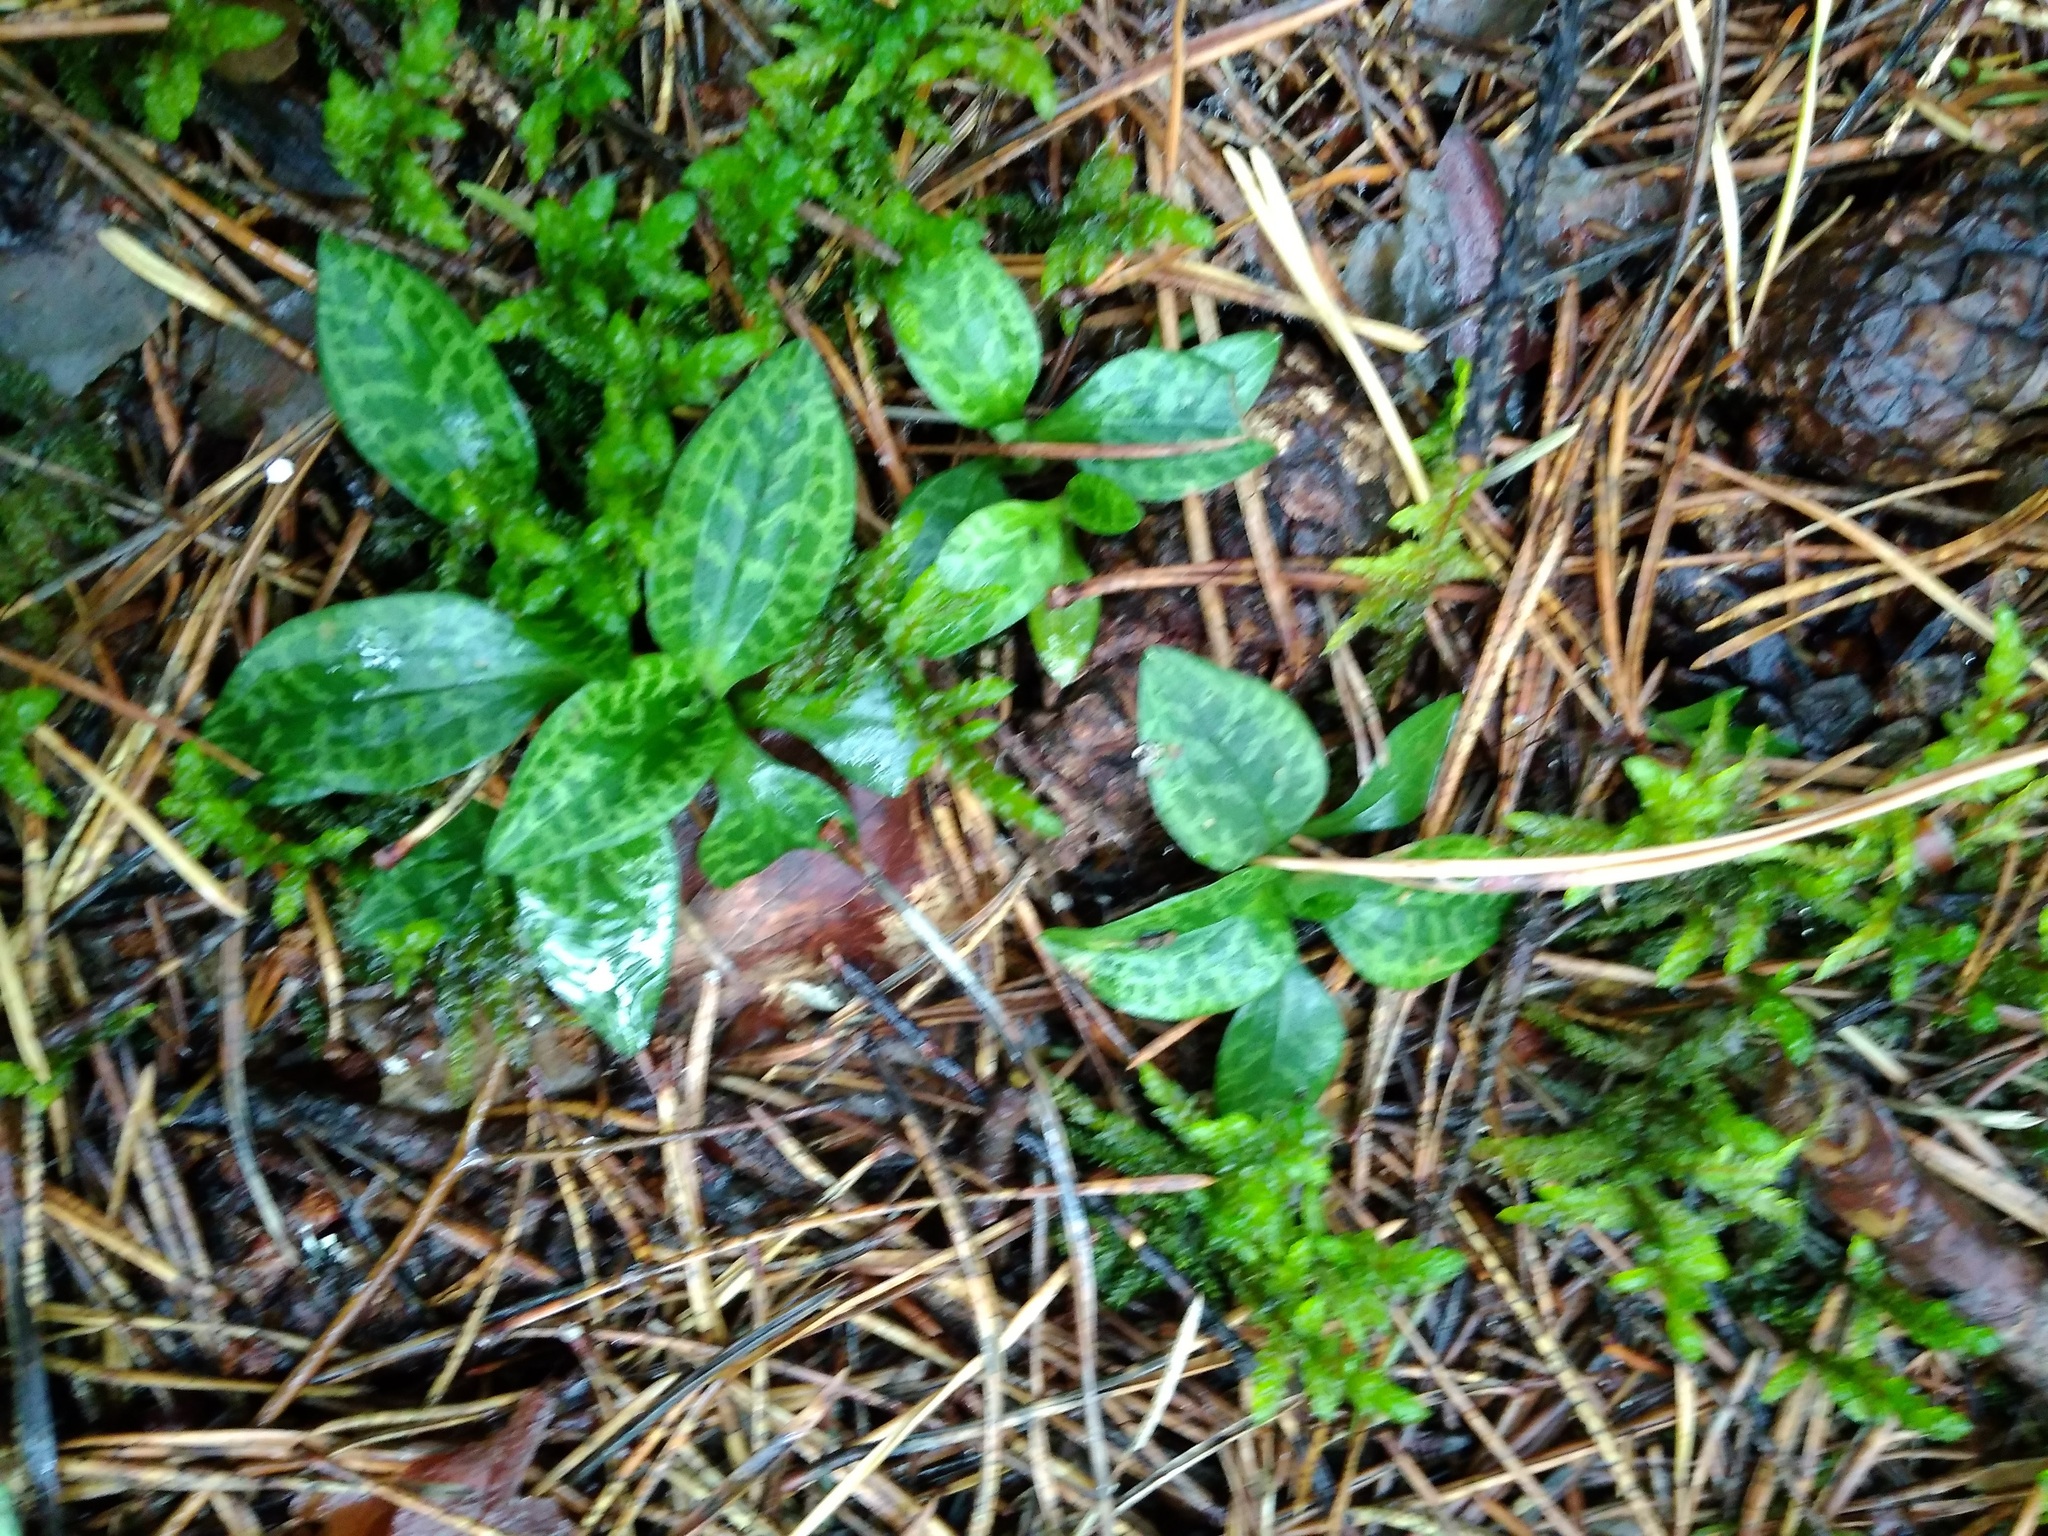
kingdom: Plantae
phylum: Tracheophyta
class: Liliopsida
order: Asparagales
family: Orchidaceae
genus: Goodyera
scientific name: Goodyera repens
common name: Creeping lady's-tresses
